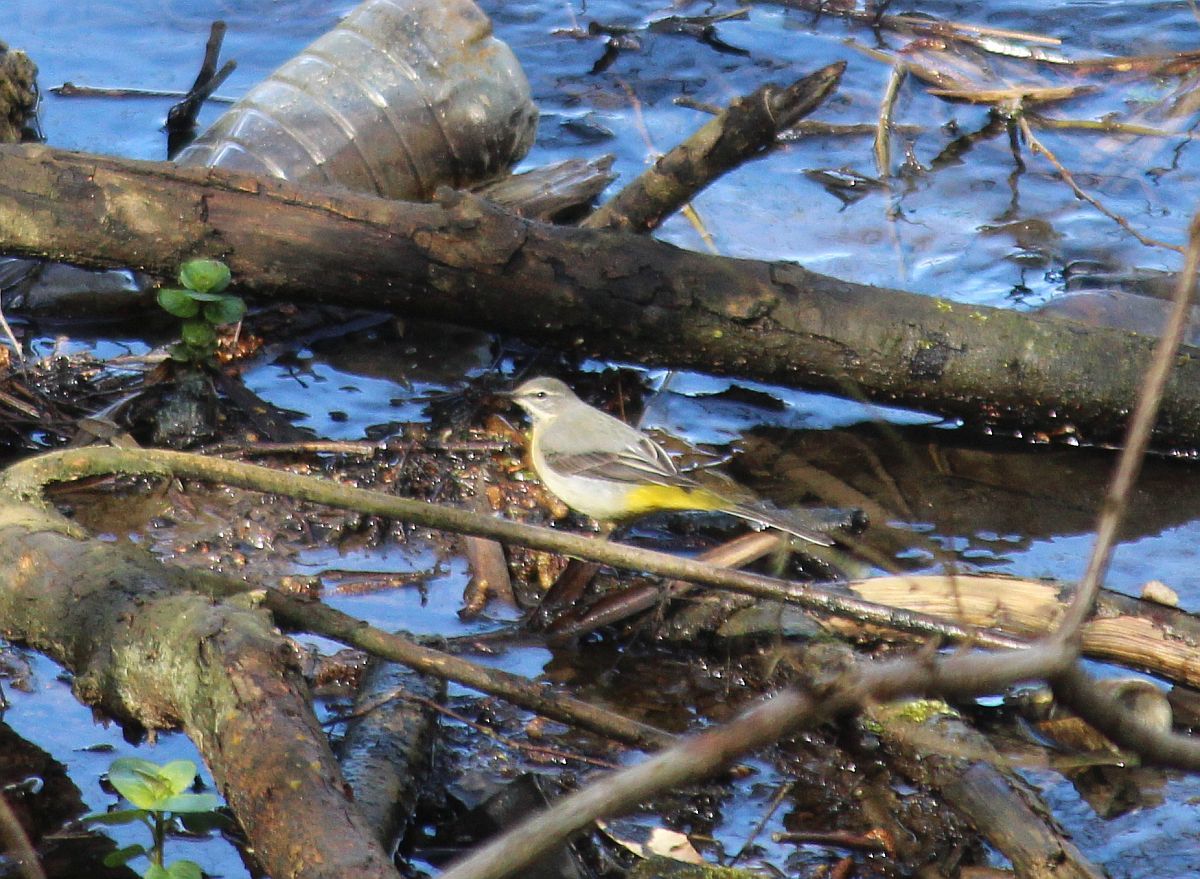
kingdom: Animalia
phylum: Chordata
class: Aves
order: Passeriformes
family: Motacillidae
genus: Motacilla
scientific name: Motacilla cinerea
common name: Grey wagtail
